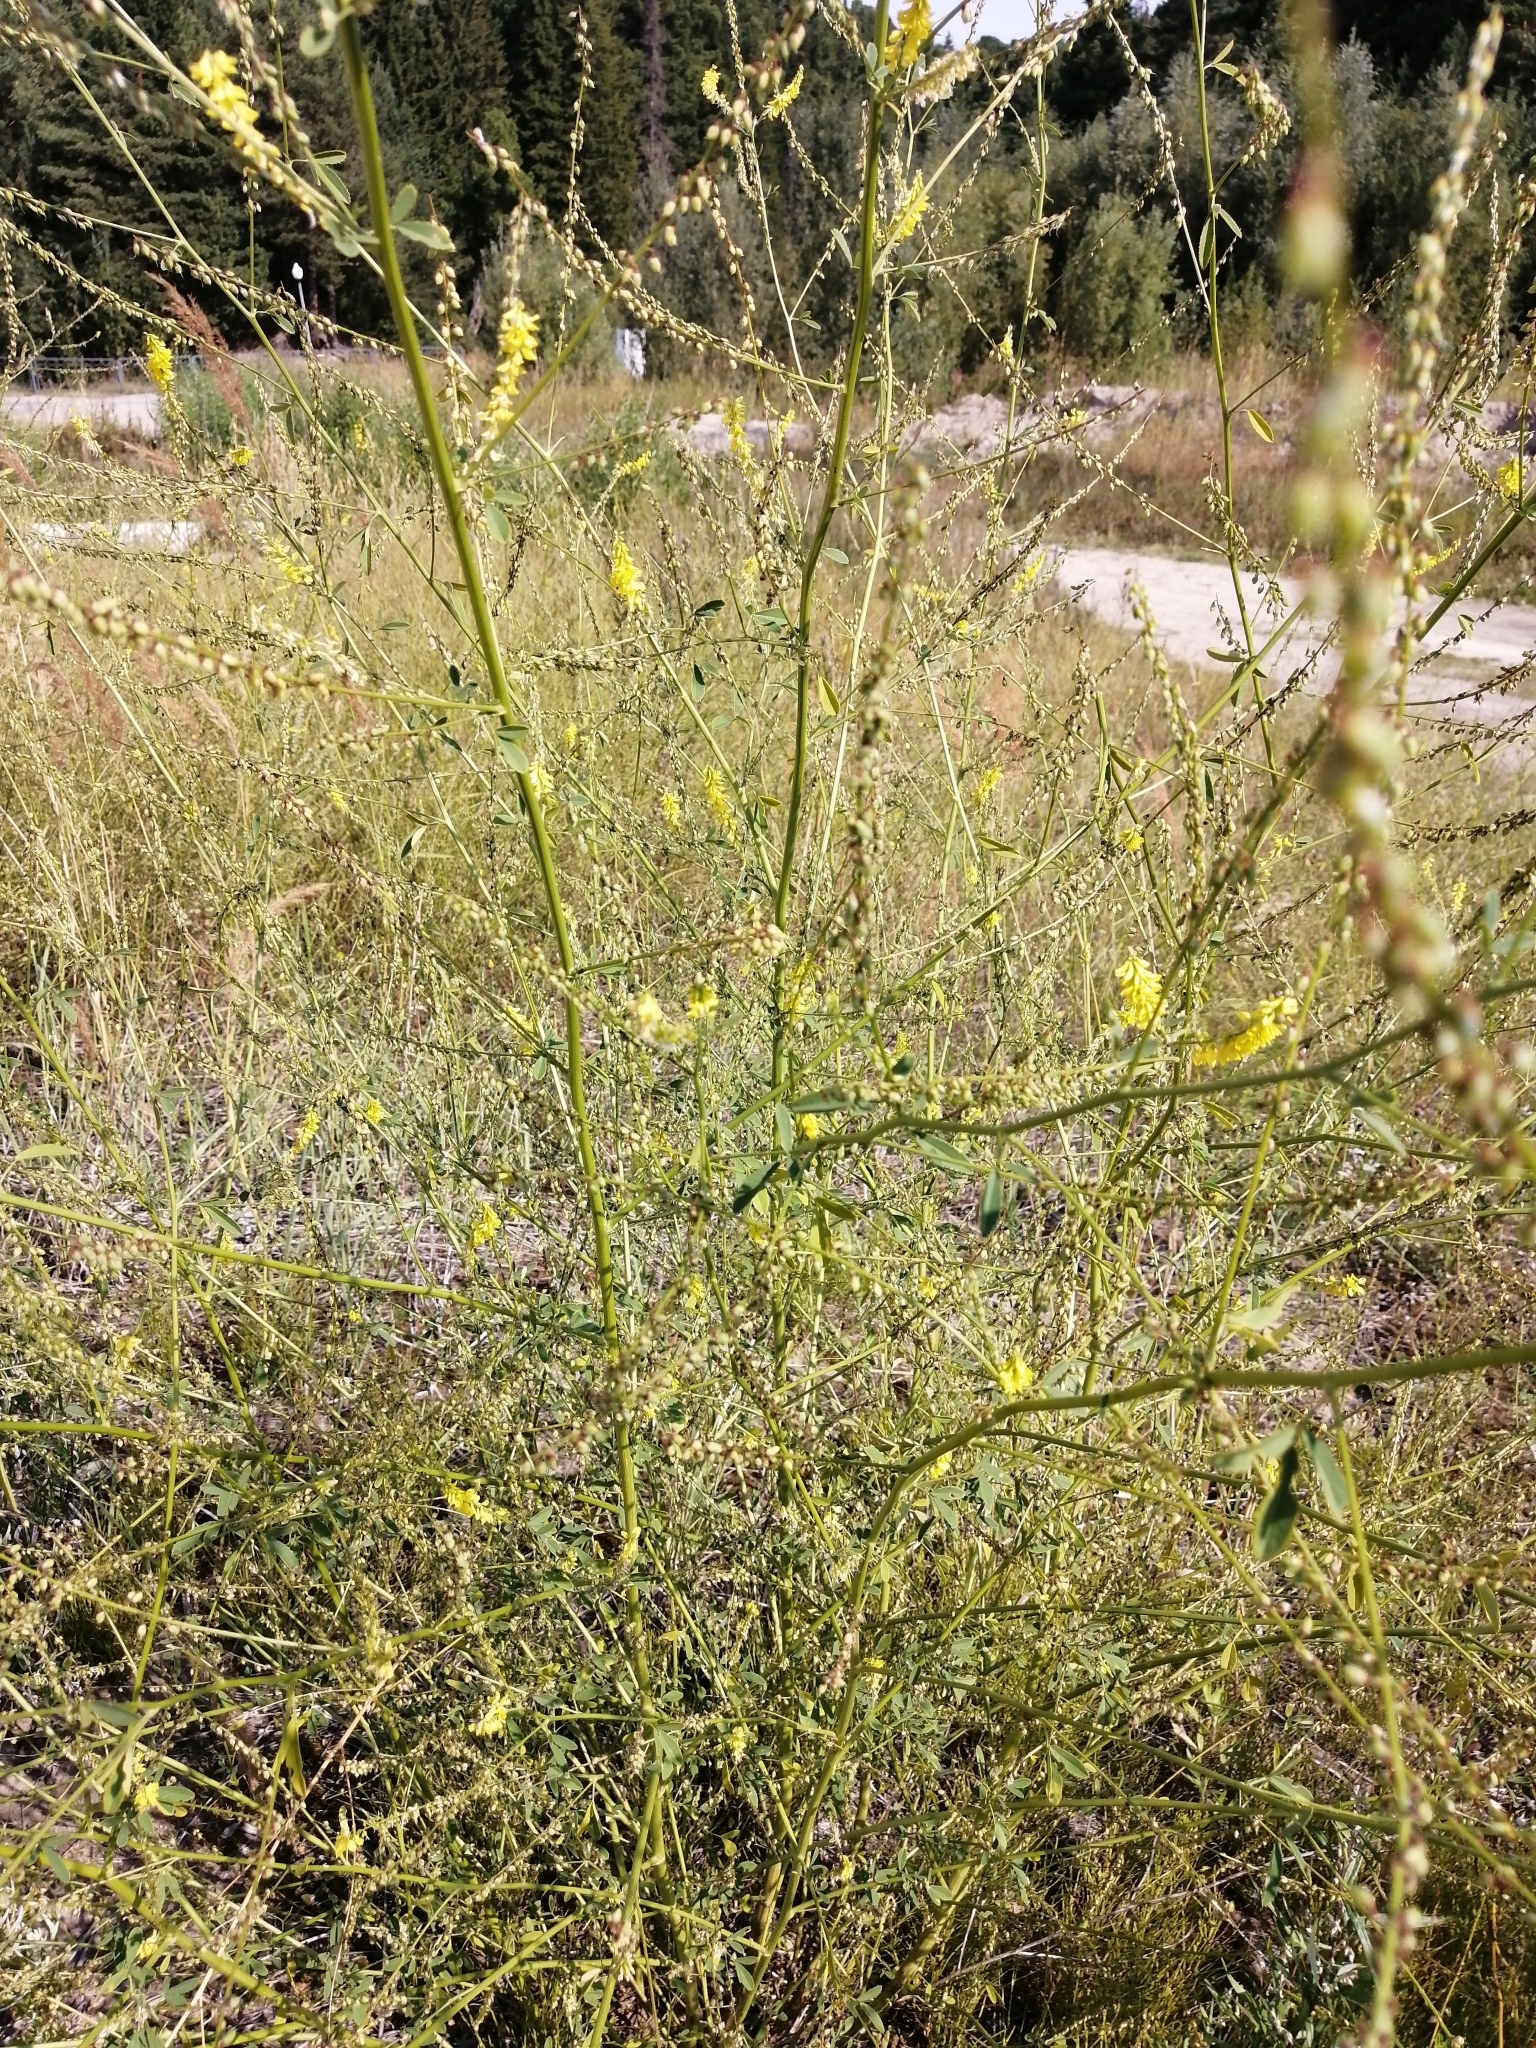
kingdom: Plantae
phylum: Tracheophyta
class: Magnoliopsida
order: Fabales
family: Fabaceae
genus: Melilotus
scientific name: Melilotus officinalis
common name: Sweetclover
